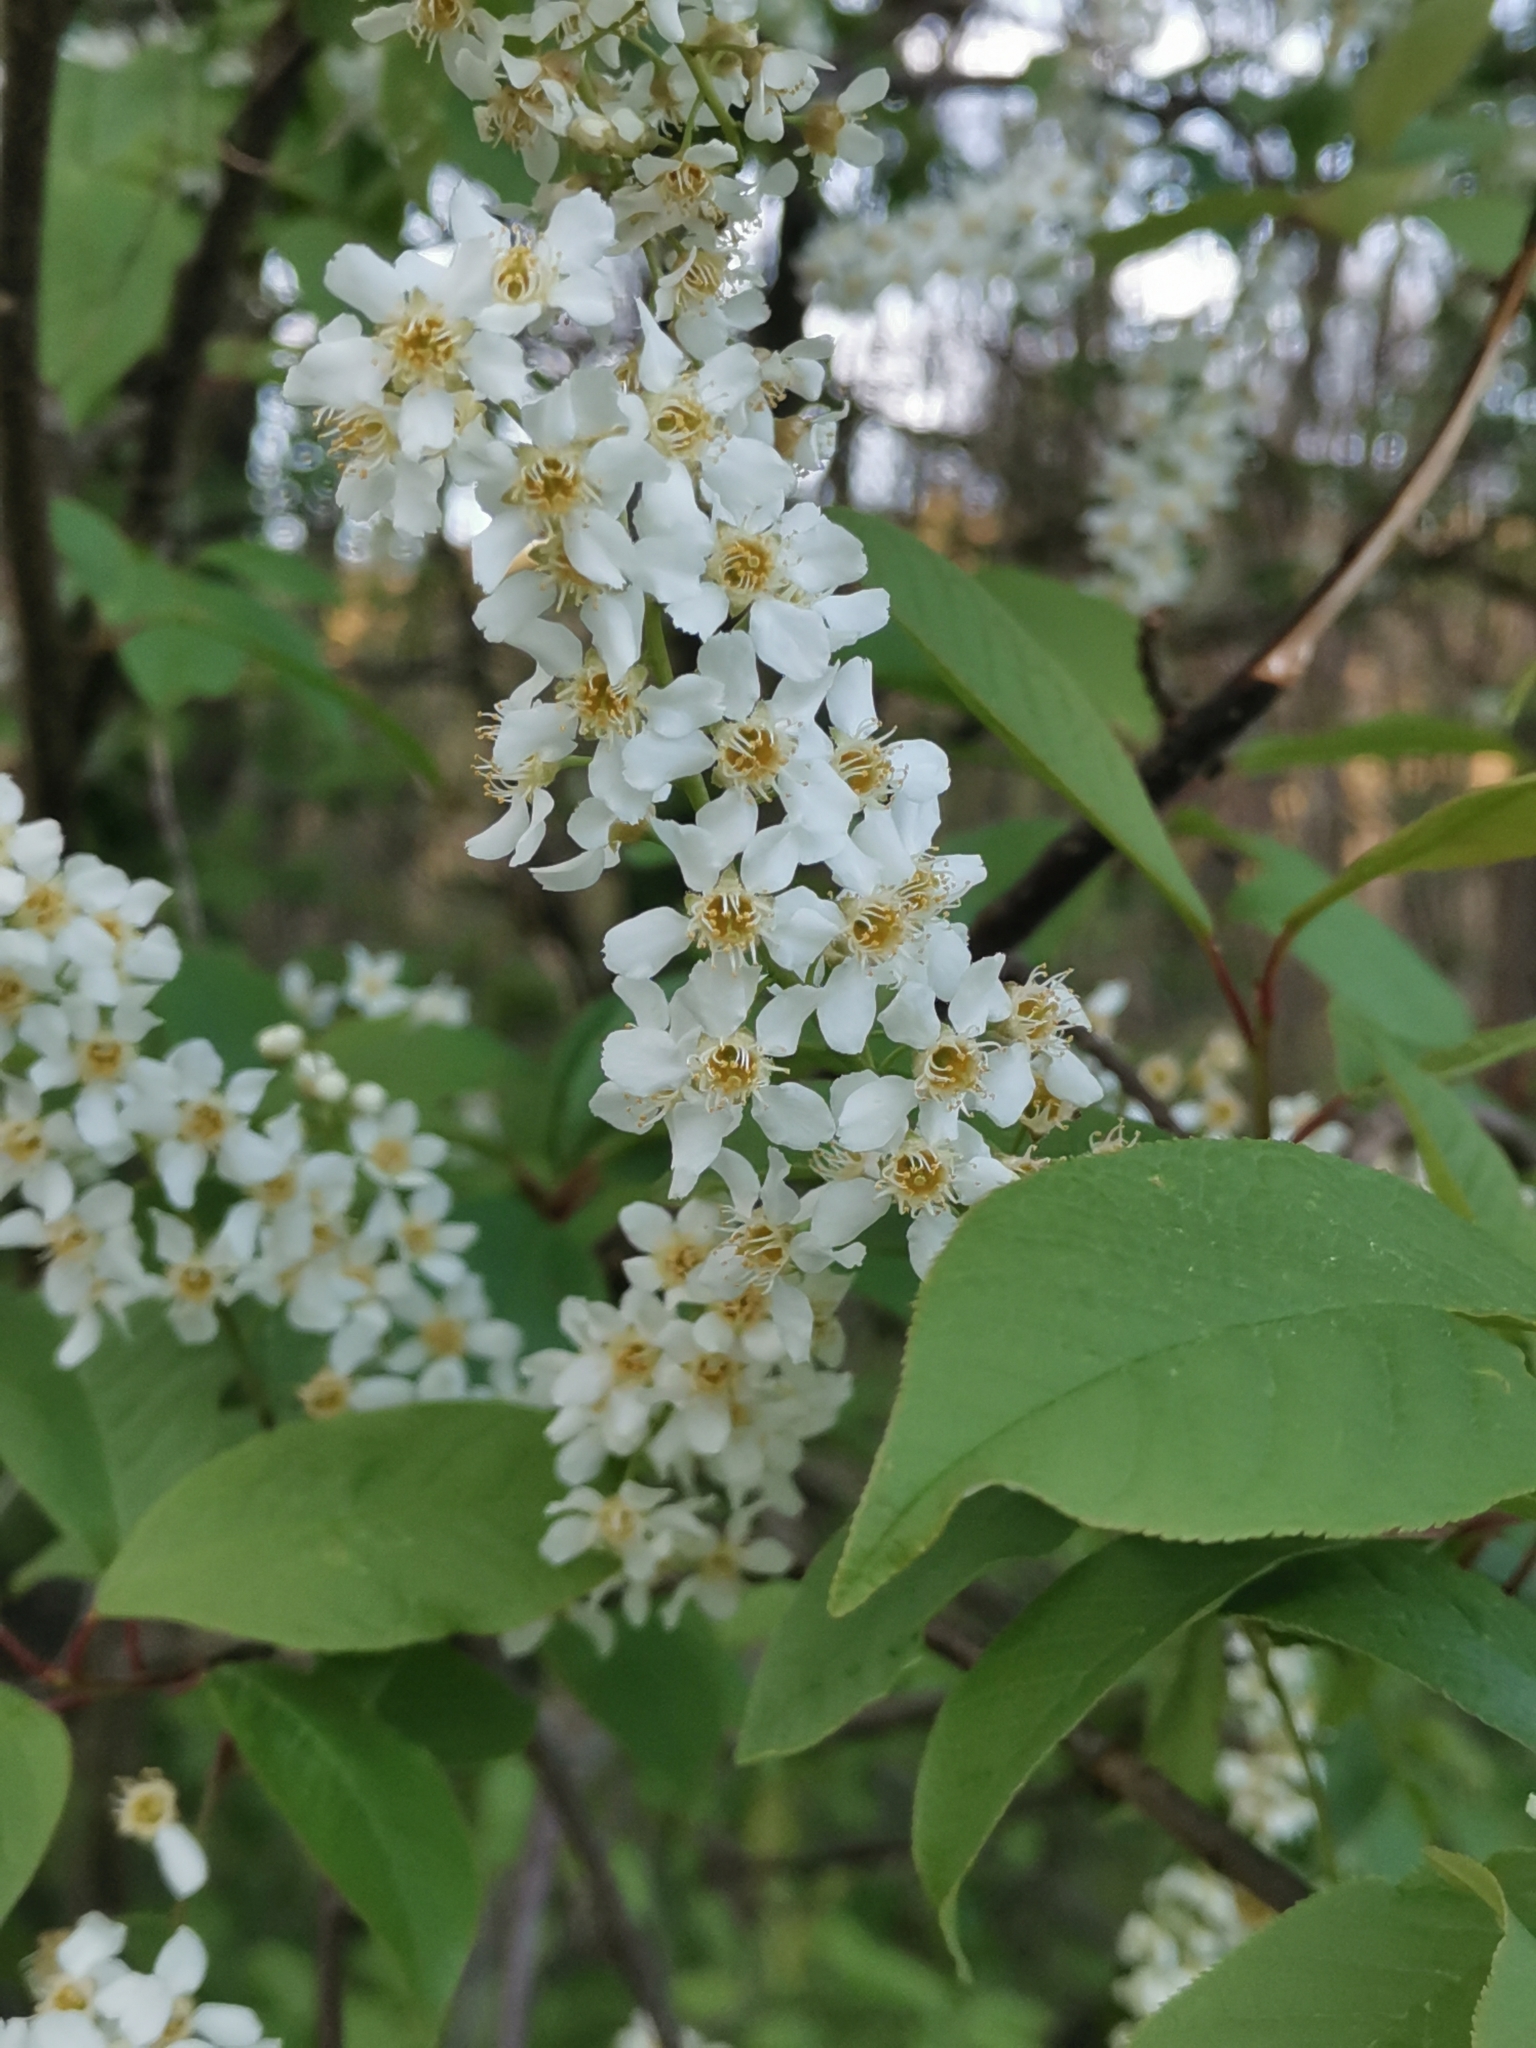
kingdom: Plantae
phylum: Tracheophyta
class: Magnoliopsida
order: Rosales
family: Rosaceae
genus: Prunus
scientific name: Prunus padus
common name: Bird cherry
